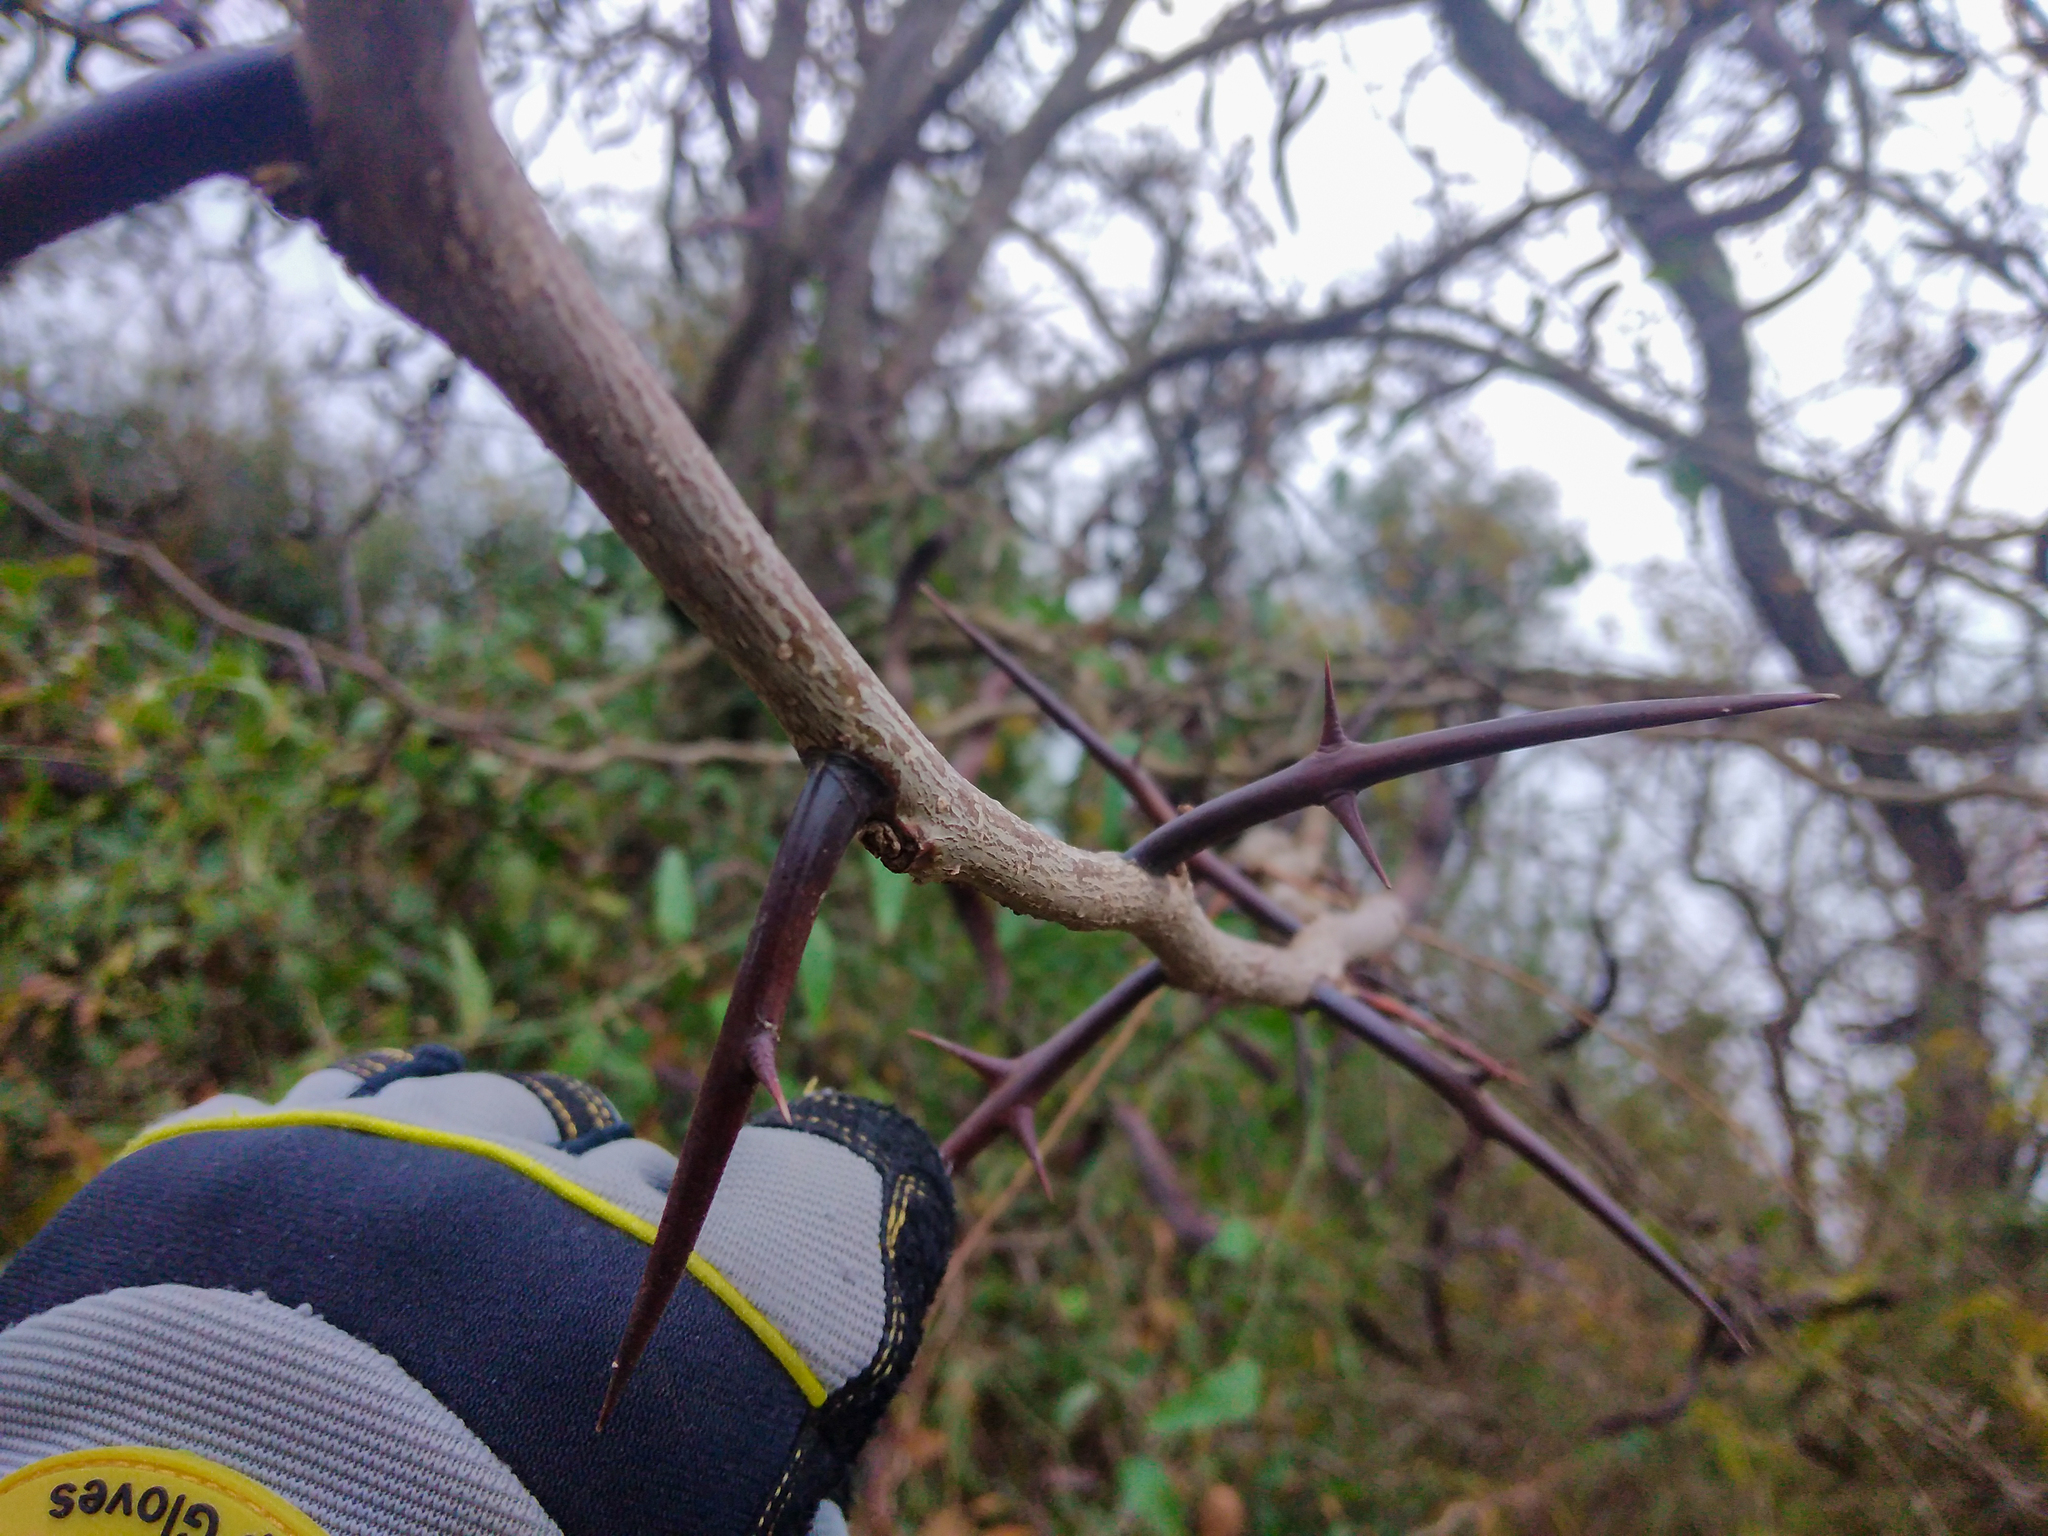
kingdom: Plantae
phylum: Tracheophyta
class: Magnoliopsida
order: Fabales
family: Fabaceae
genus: Gleditsia
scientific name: Gleditsia triacanthos
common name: Common honeylocust
